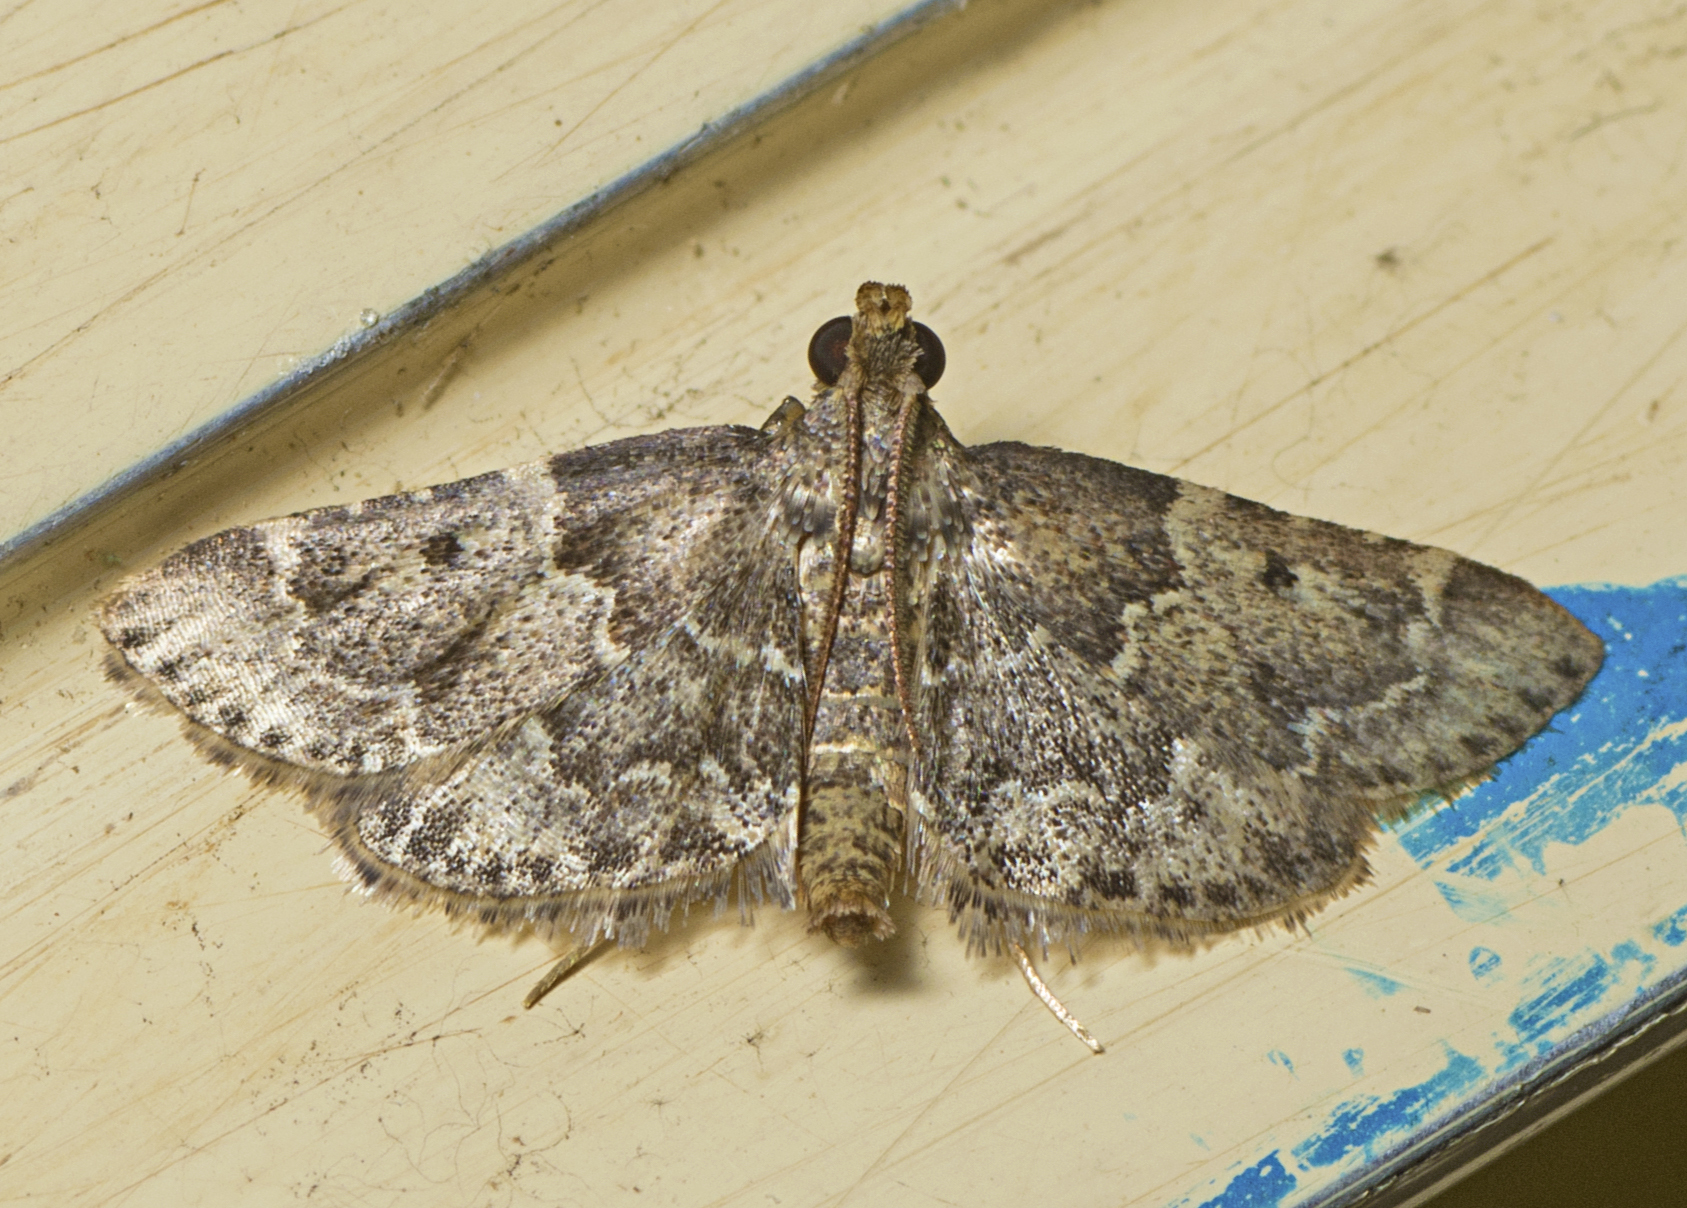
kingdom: Animalia
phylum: Arthropoda
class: Insecta
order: Lepidoptera
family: Pyralidae
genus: Pyralis
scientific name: Pyralis manihotalis
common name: Moth
